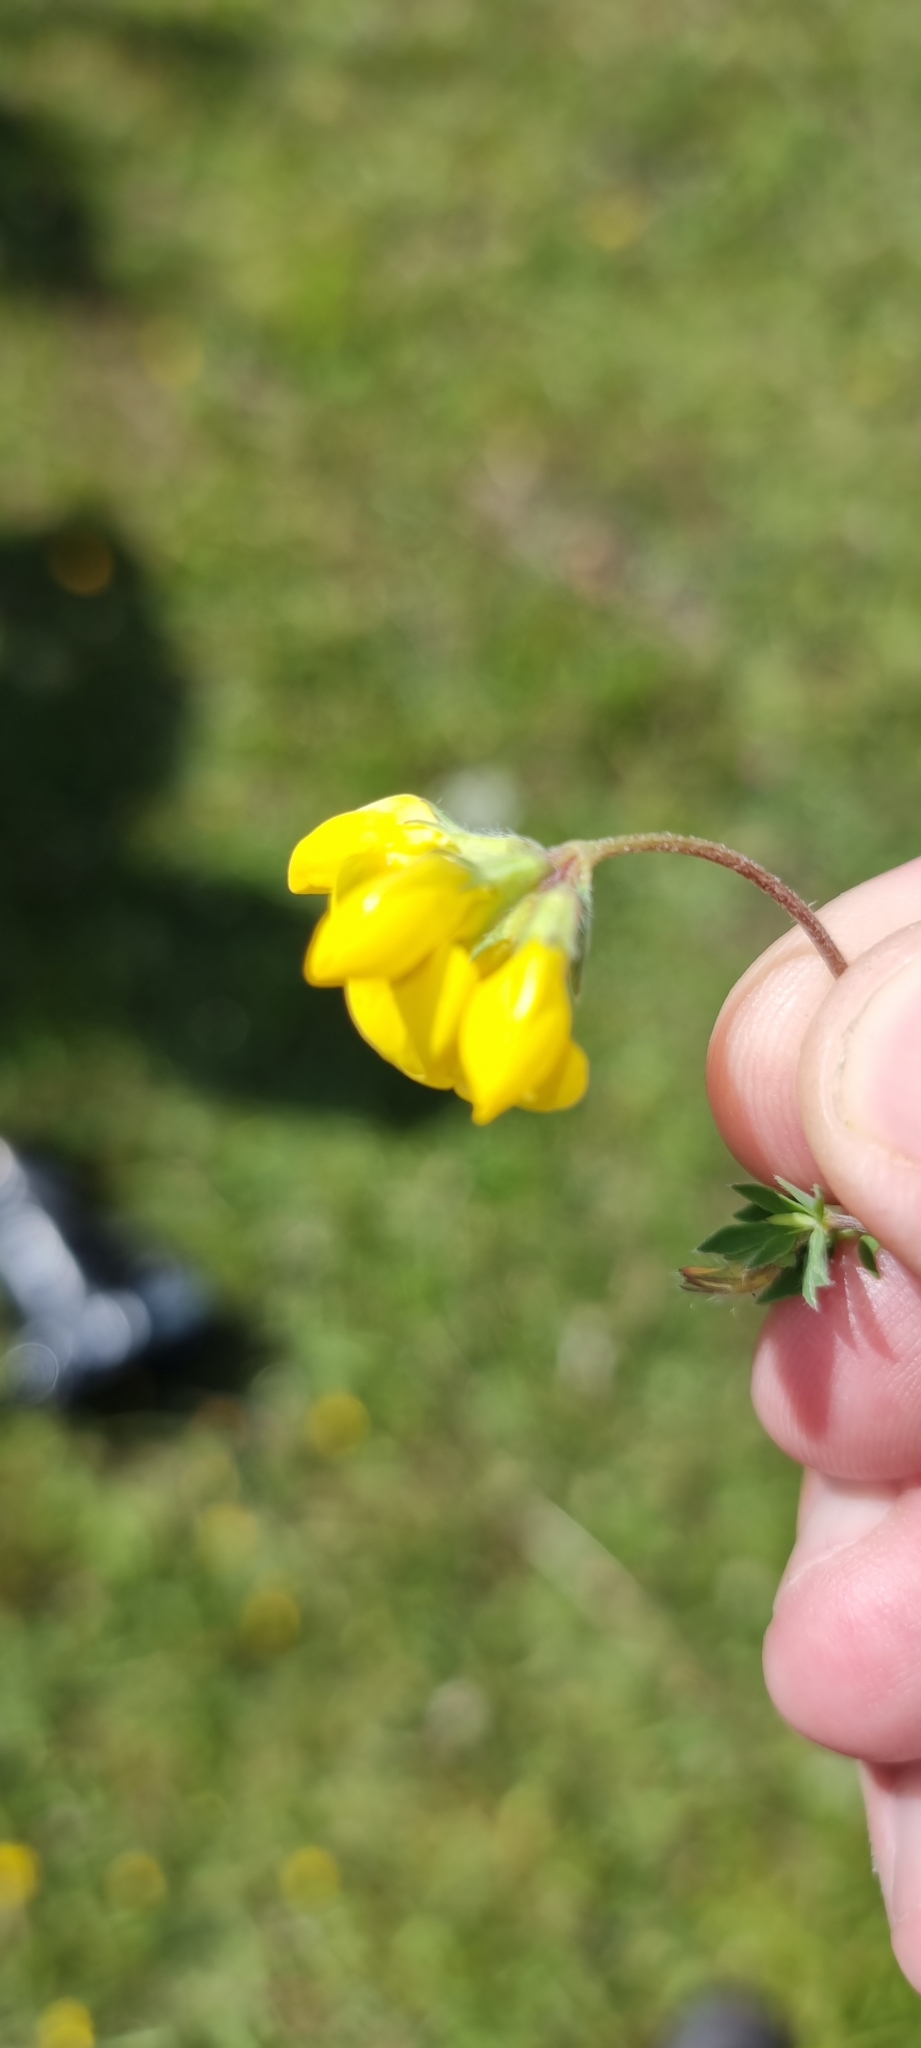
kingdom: Plantae
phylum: Tracheophyta
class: Magnoliopsida
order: Fabales
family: Fabaceae
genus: Lotus
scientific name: Lotus corniculatus
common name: Common bird's-foot-trefoil
